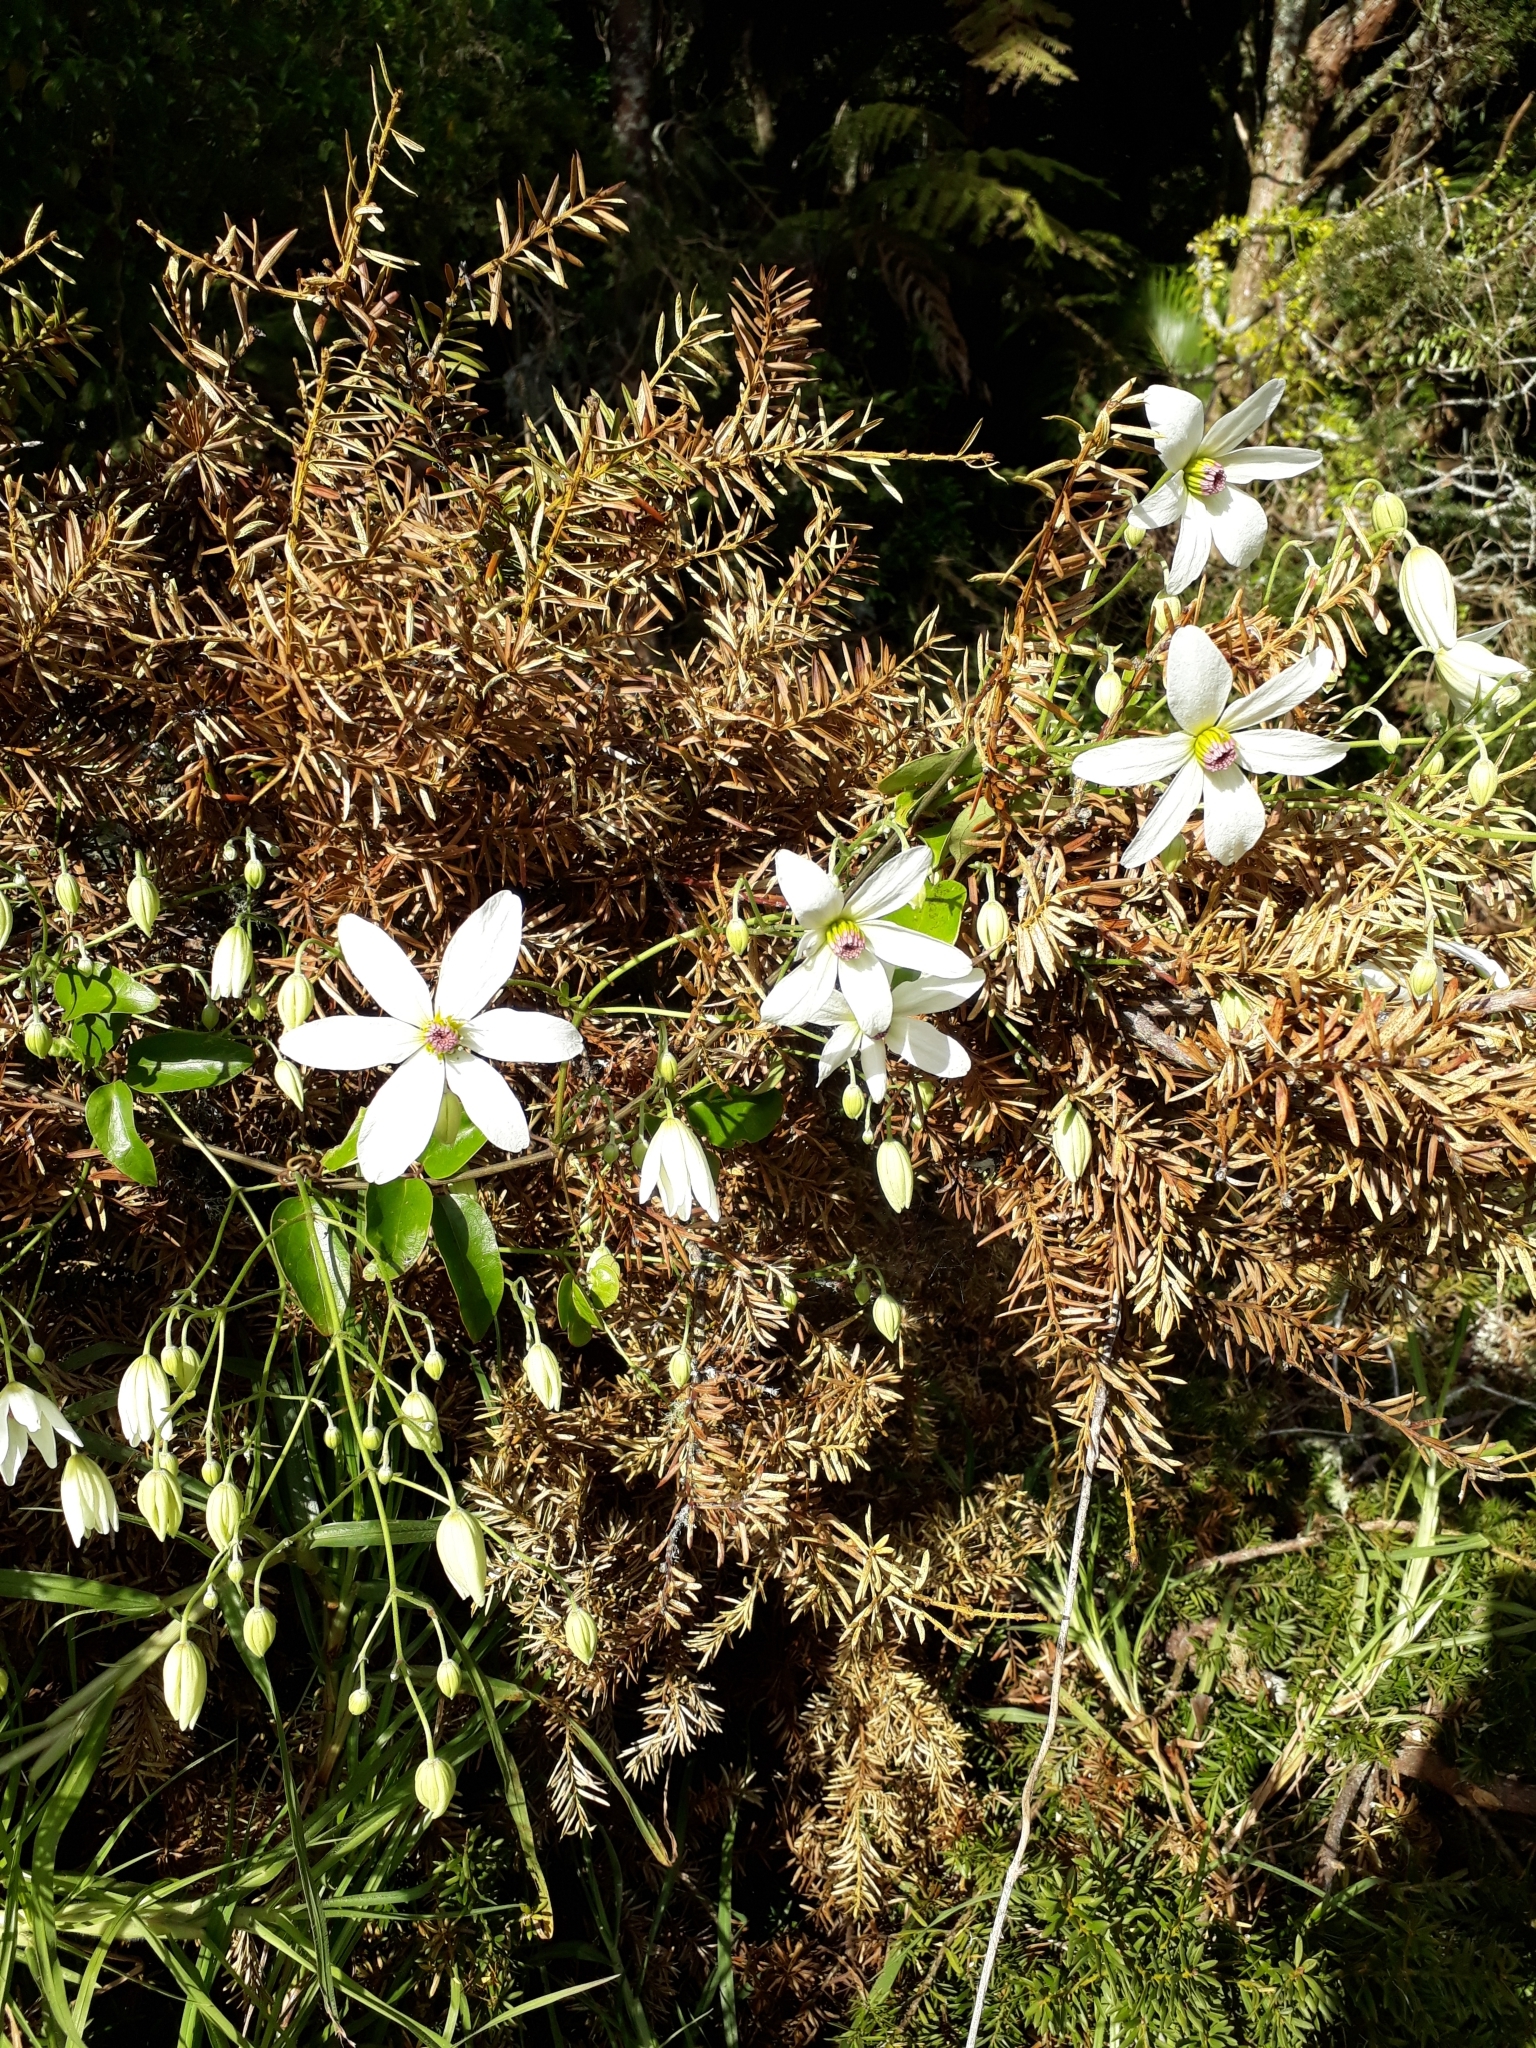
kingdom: Plantae
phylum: Tracheophyta
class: Magnoliopsida
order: Ranunculales
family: Ranunculaceae
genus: Clematis
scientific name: Clematis paniculata
